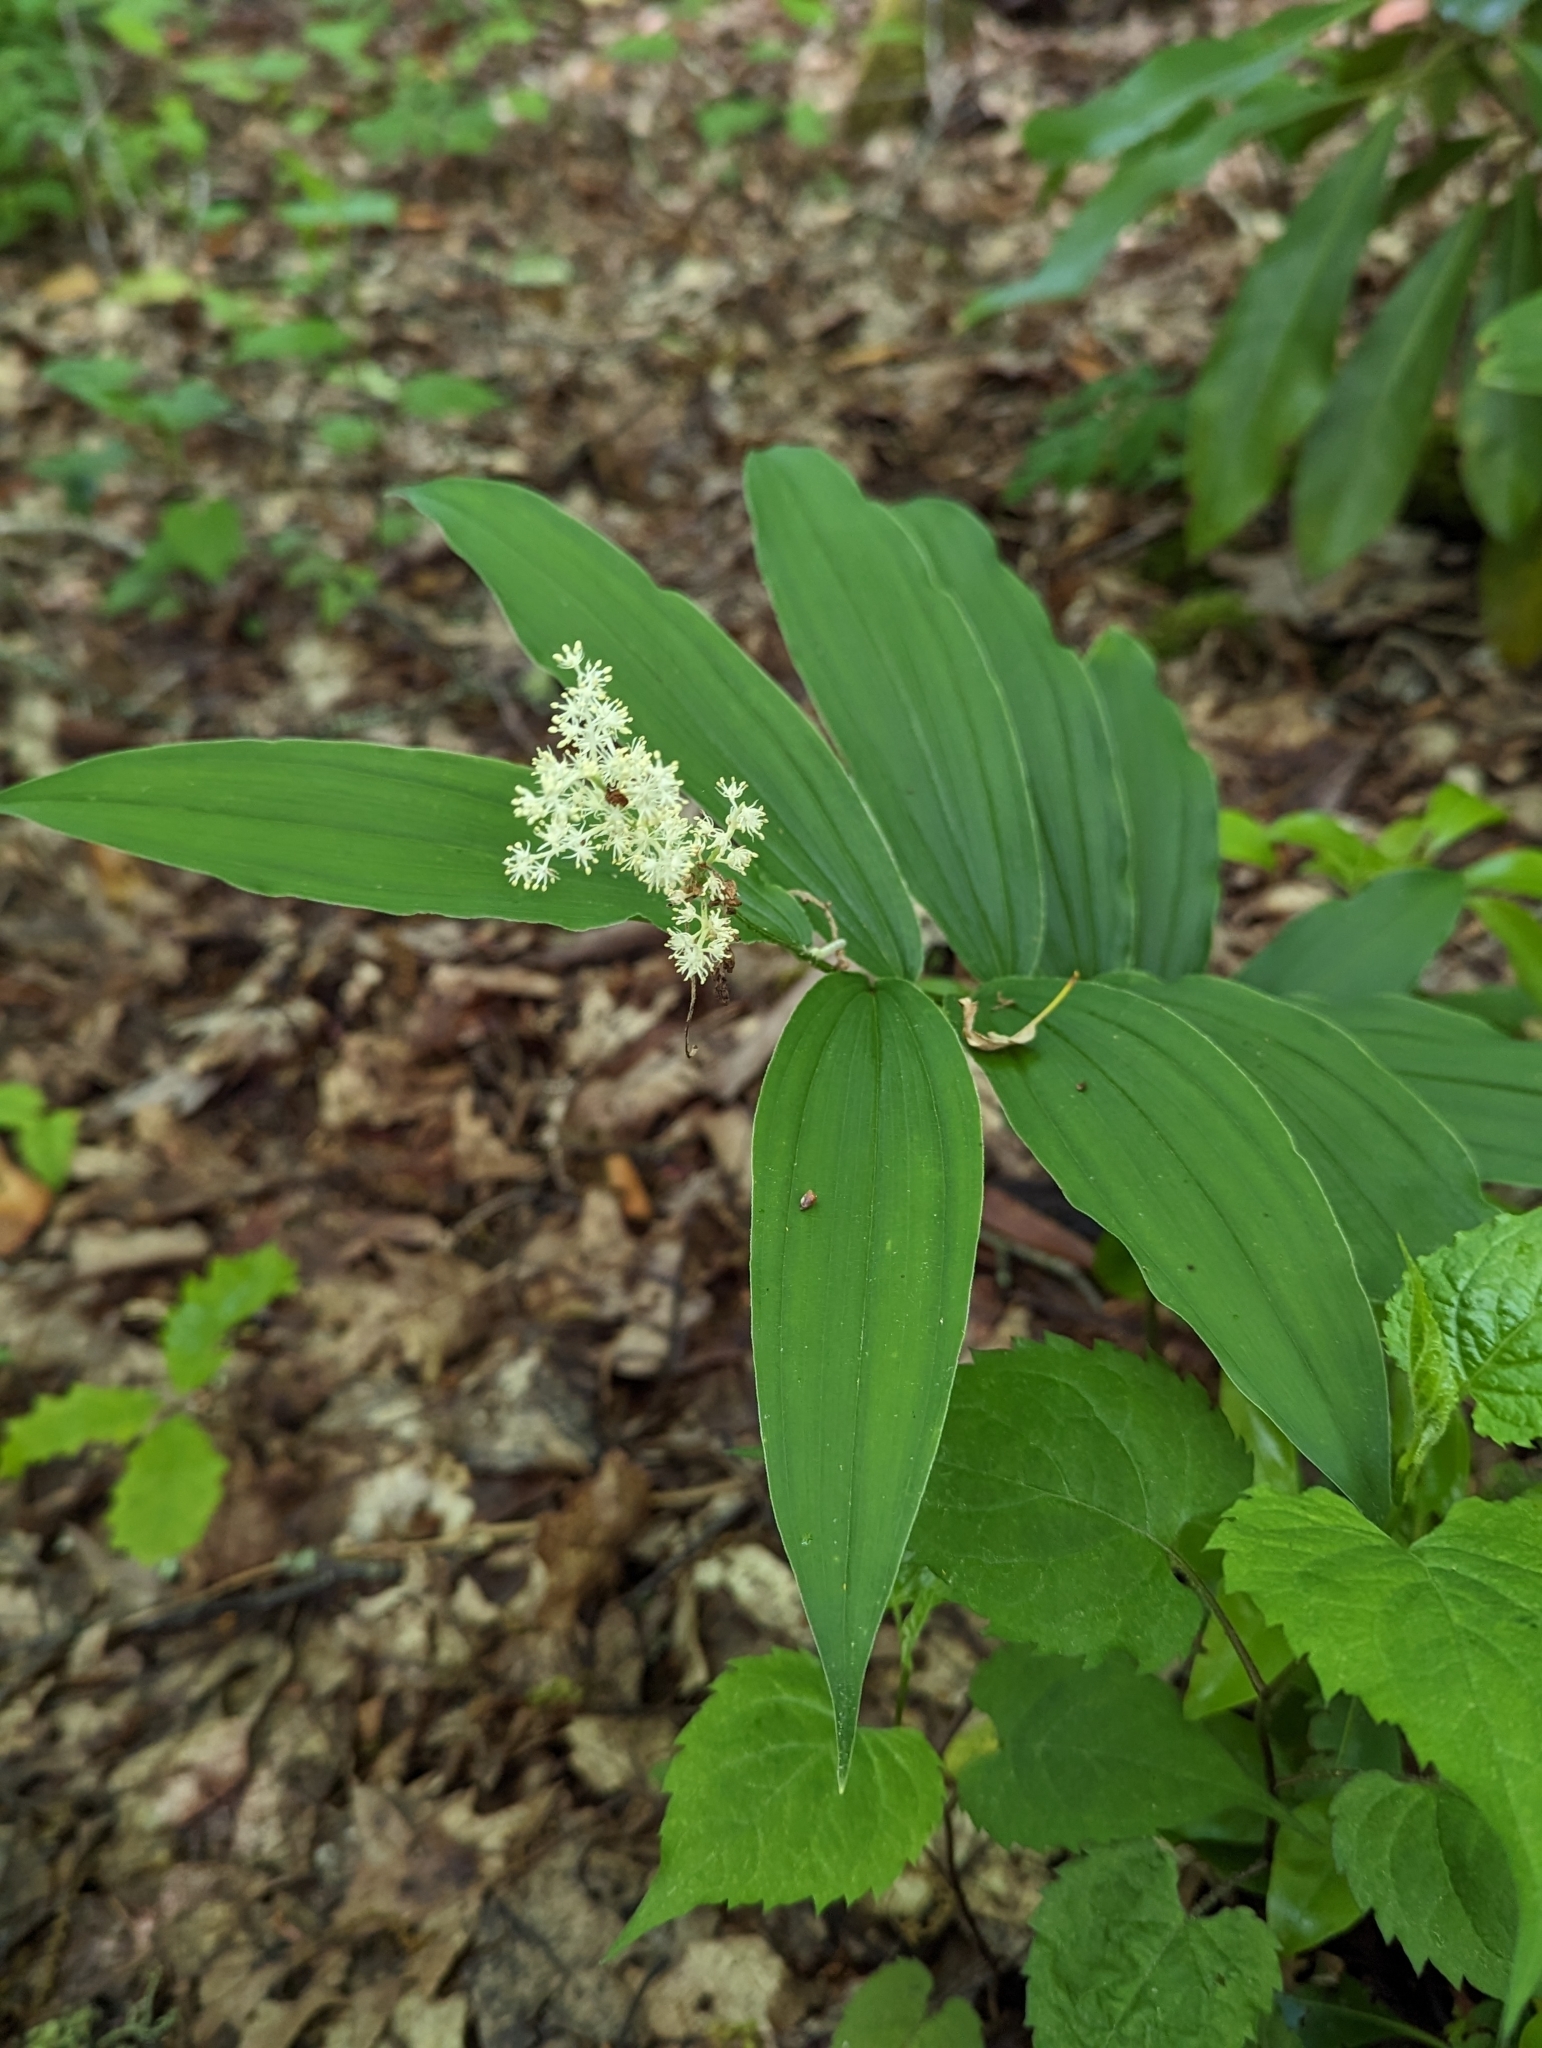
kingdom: Plantae
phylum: Tracheophyta
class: Liliopsida
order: Asparagales
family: Asparagaceae
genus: Maianthemum
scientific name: Maianthemum racemosum
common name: False spikenard
